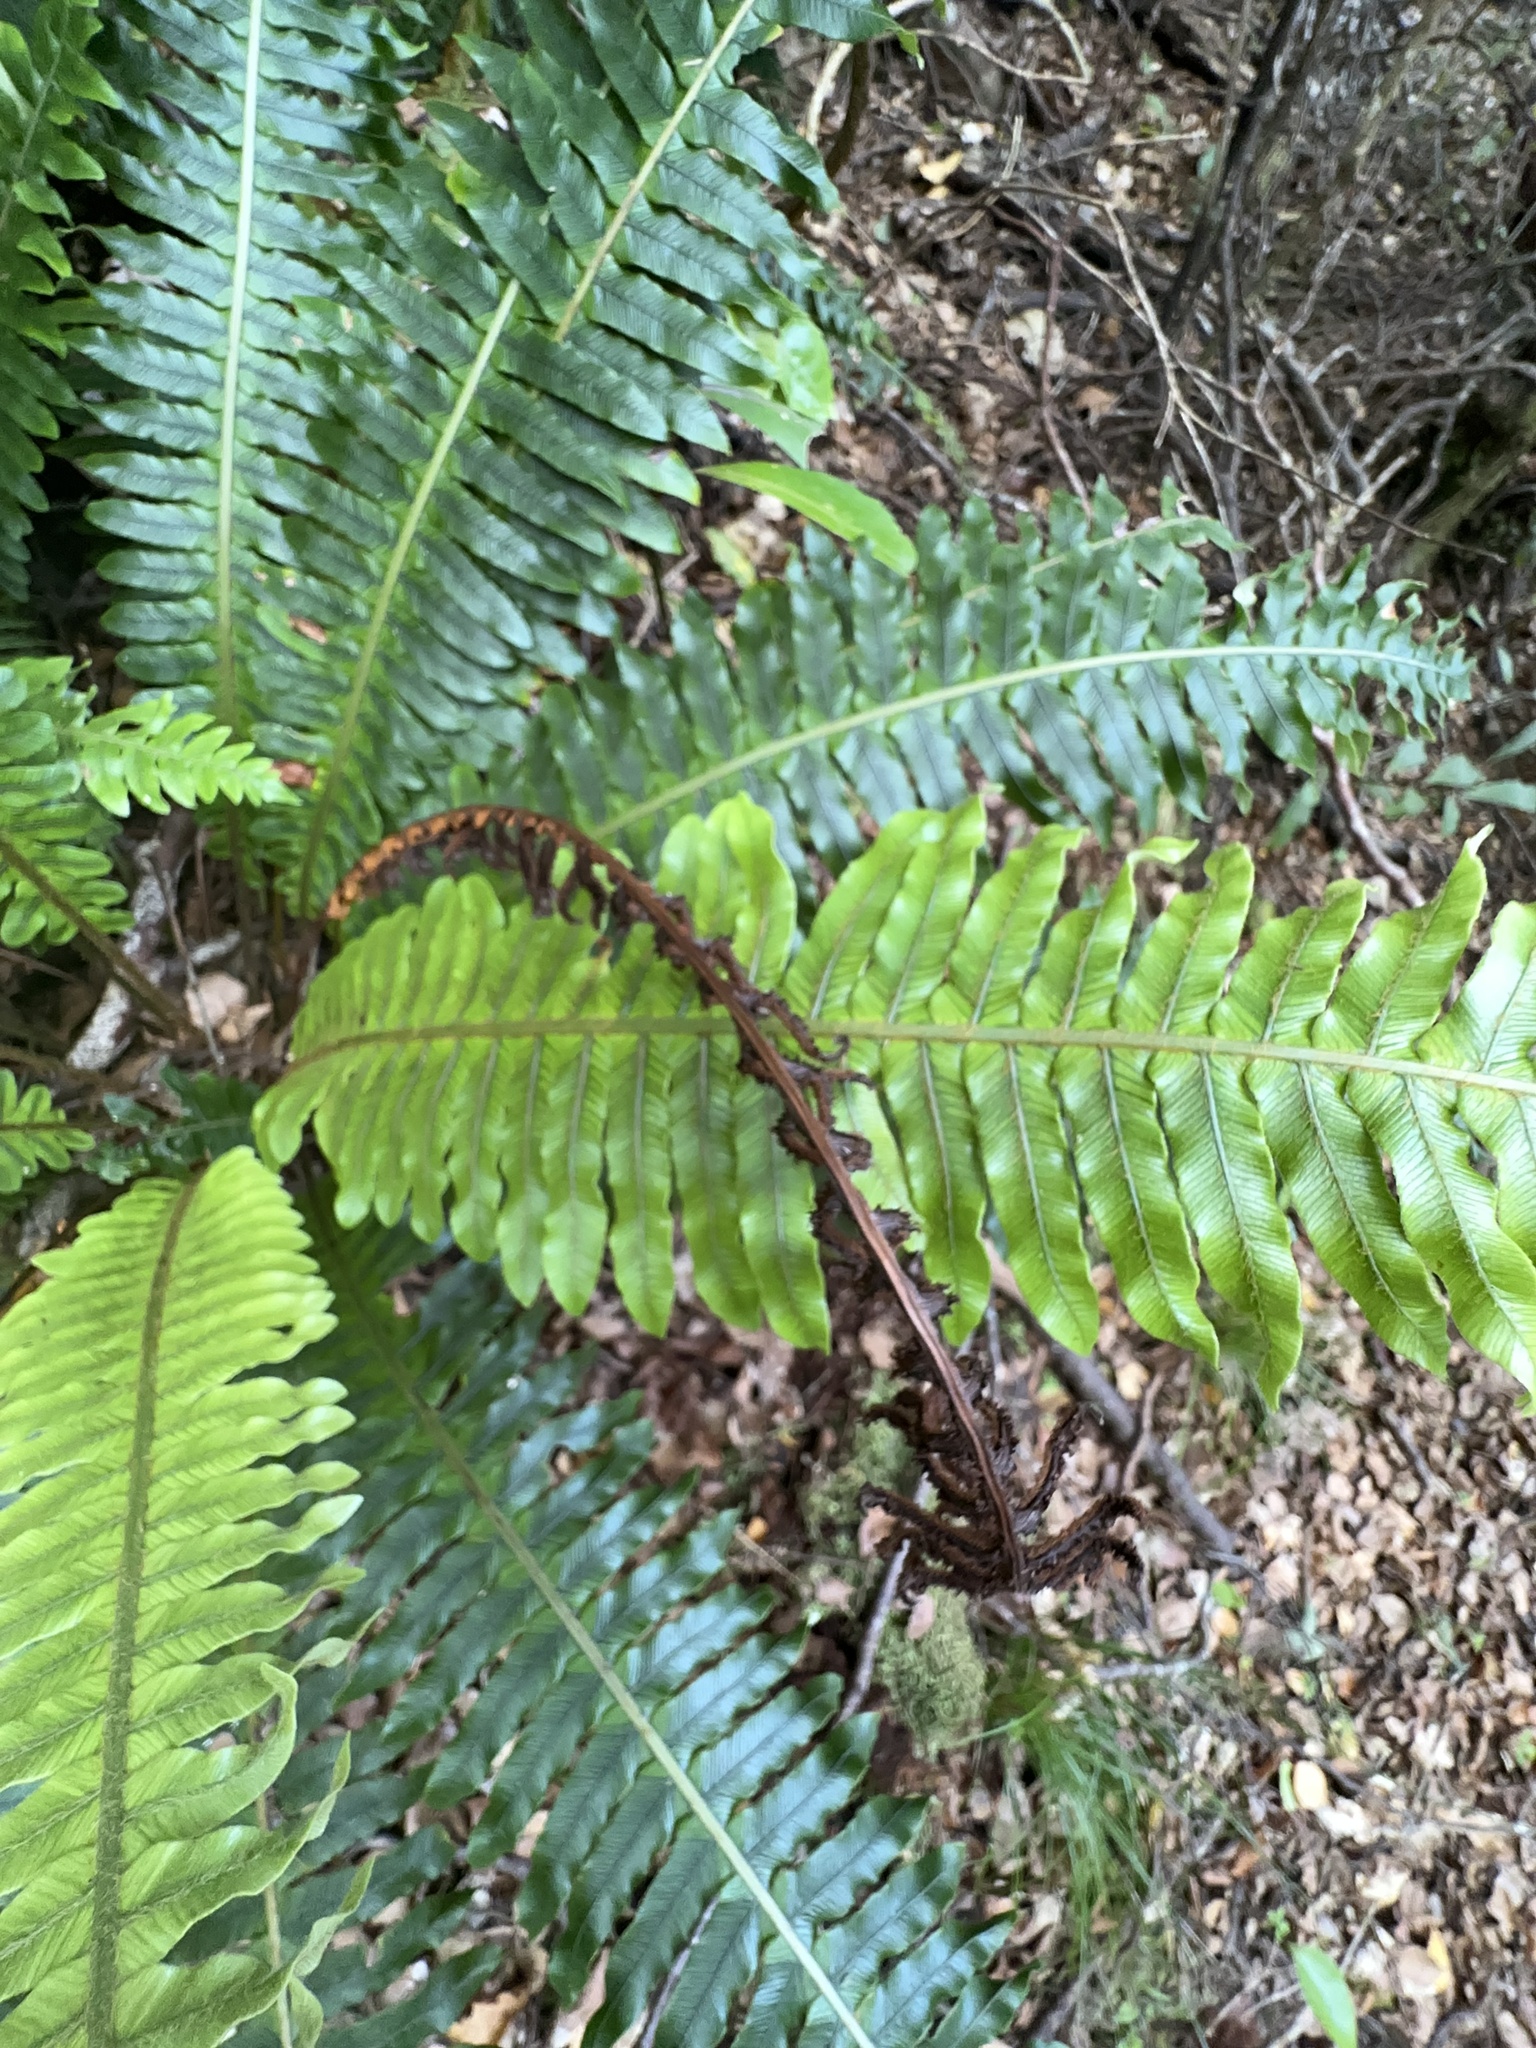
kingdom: Plantae
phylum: Tracheophyta
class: Polypodiopsida
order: Polypodiales
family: Blechnaceae
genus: Lomaria
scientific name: Lomaria discolor
